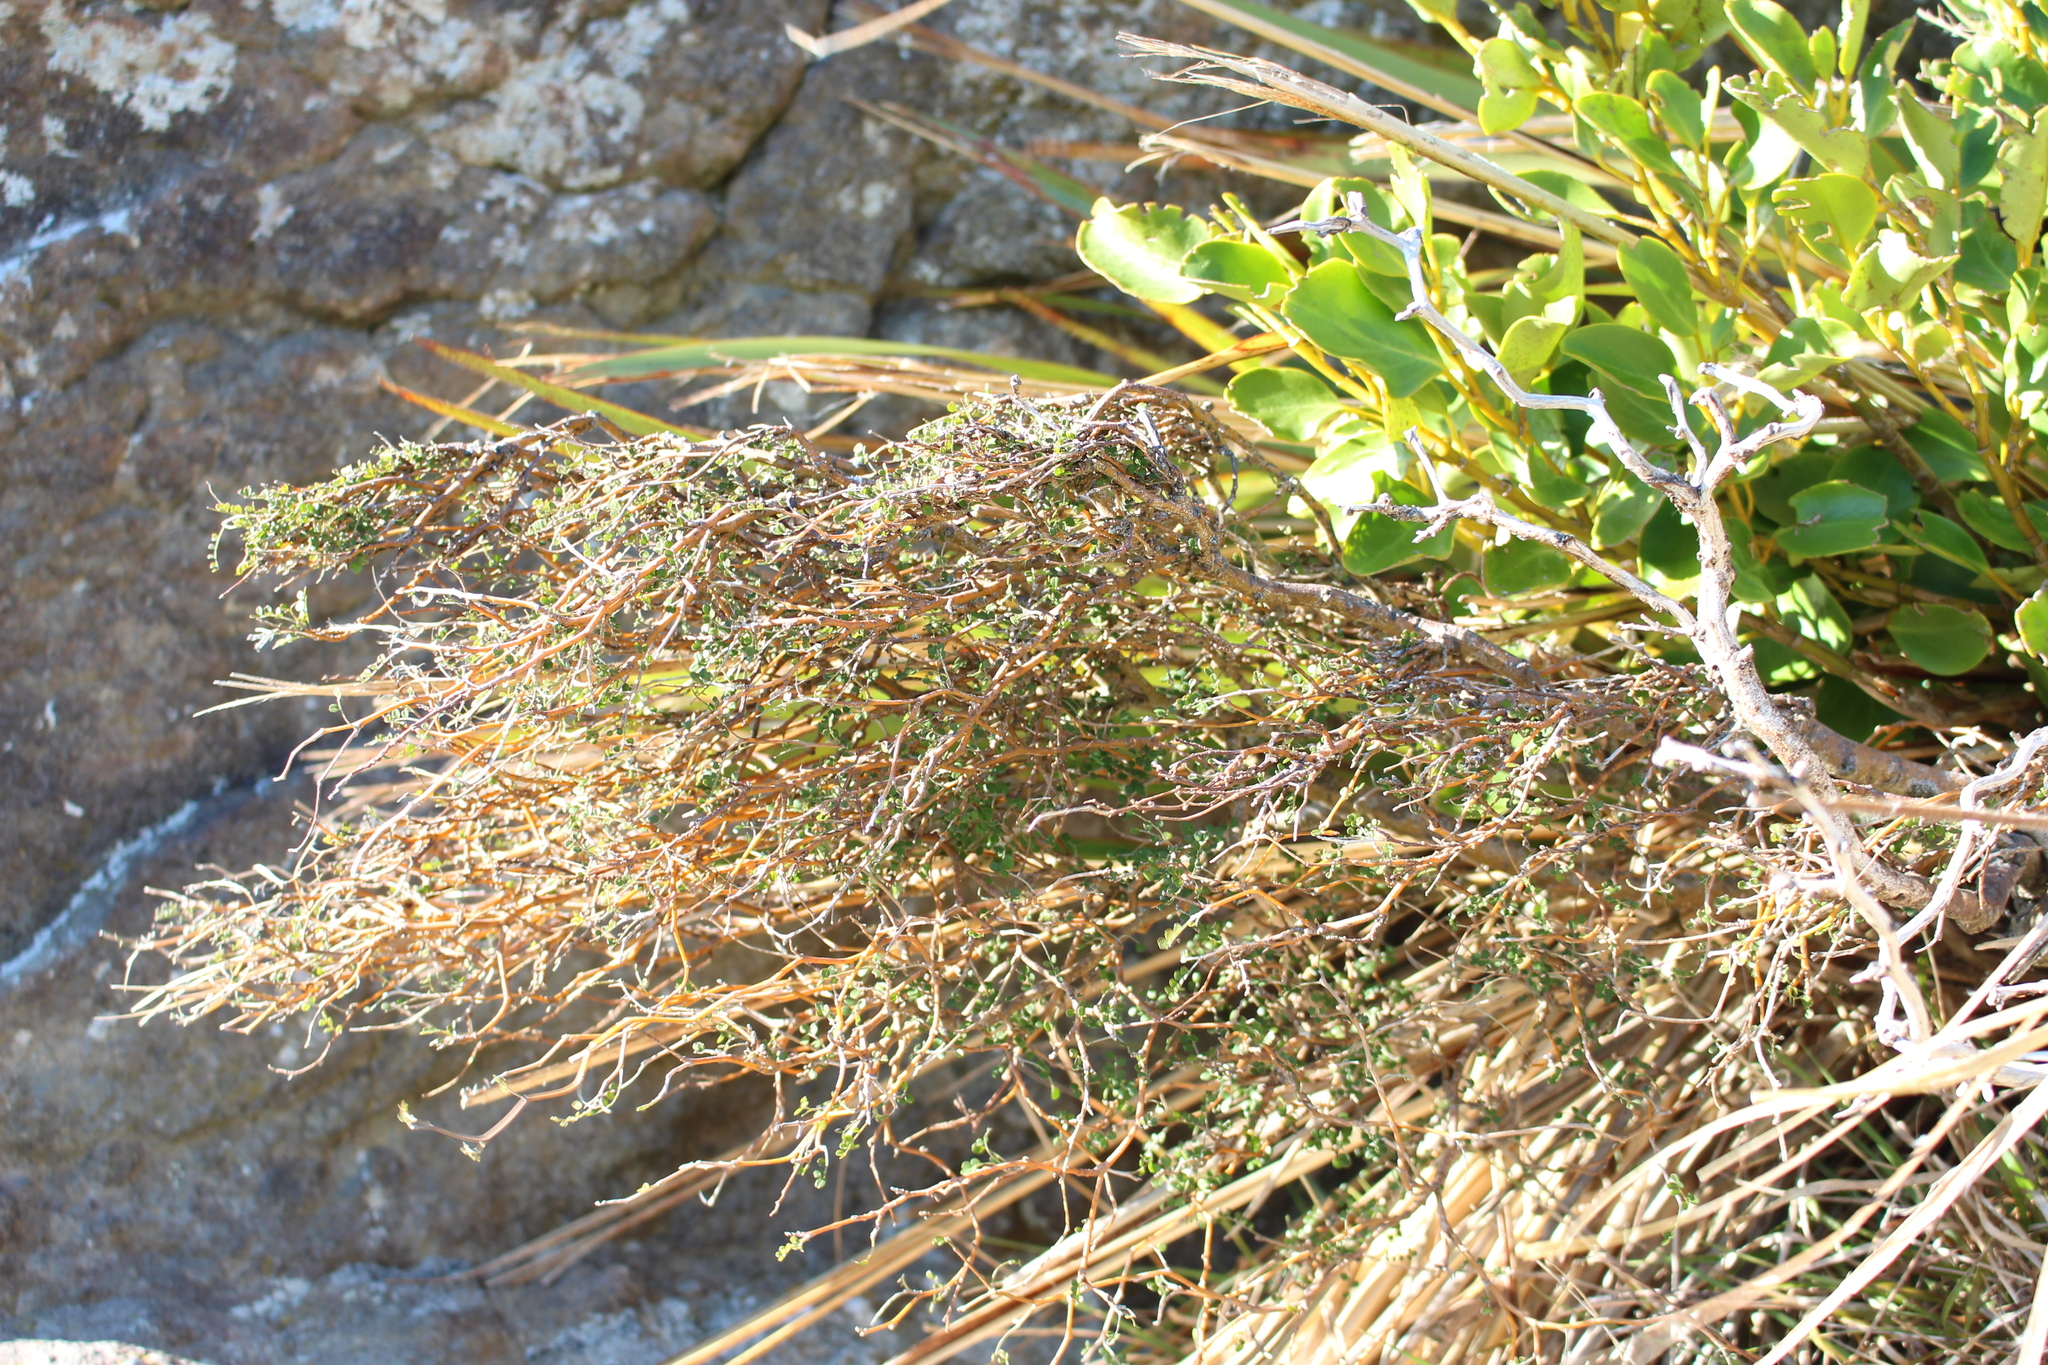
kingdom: Plantae
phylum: Tracheophyta
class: Magnoliopsida
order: Fabales
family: Fabaceae
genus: Sophora
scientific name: Sophora prostrata
